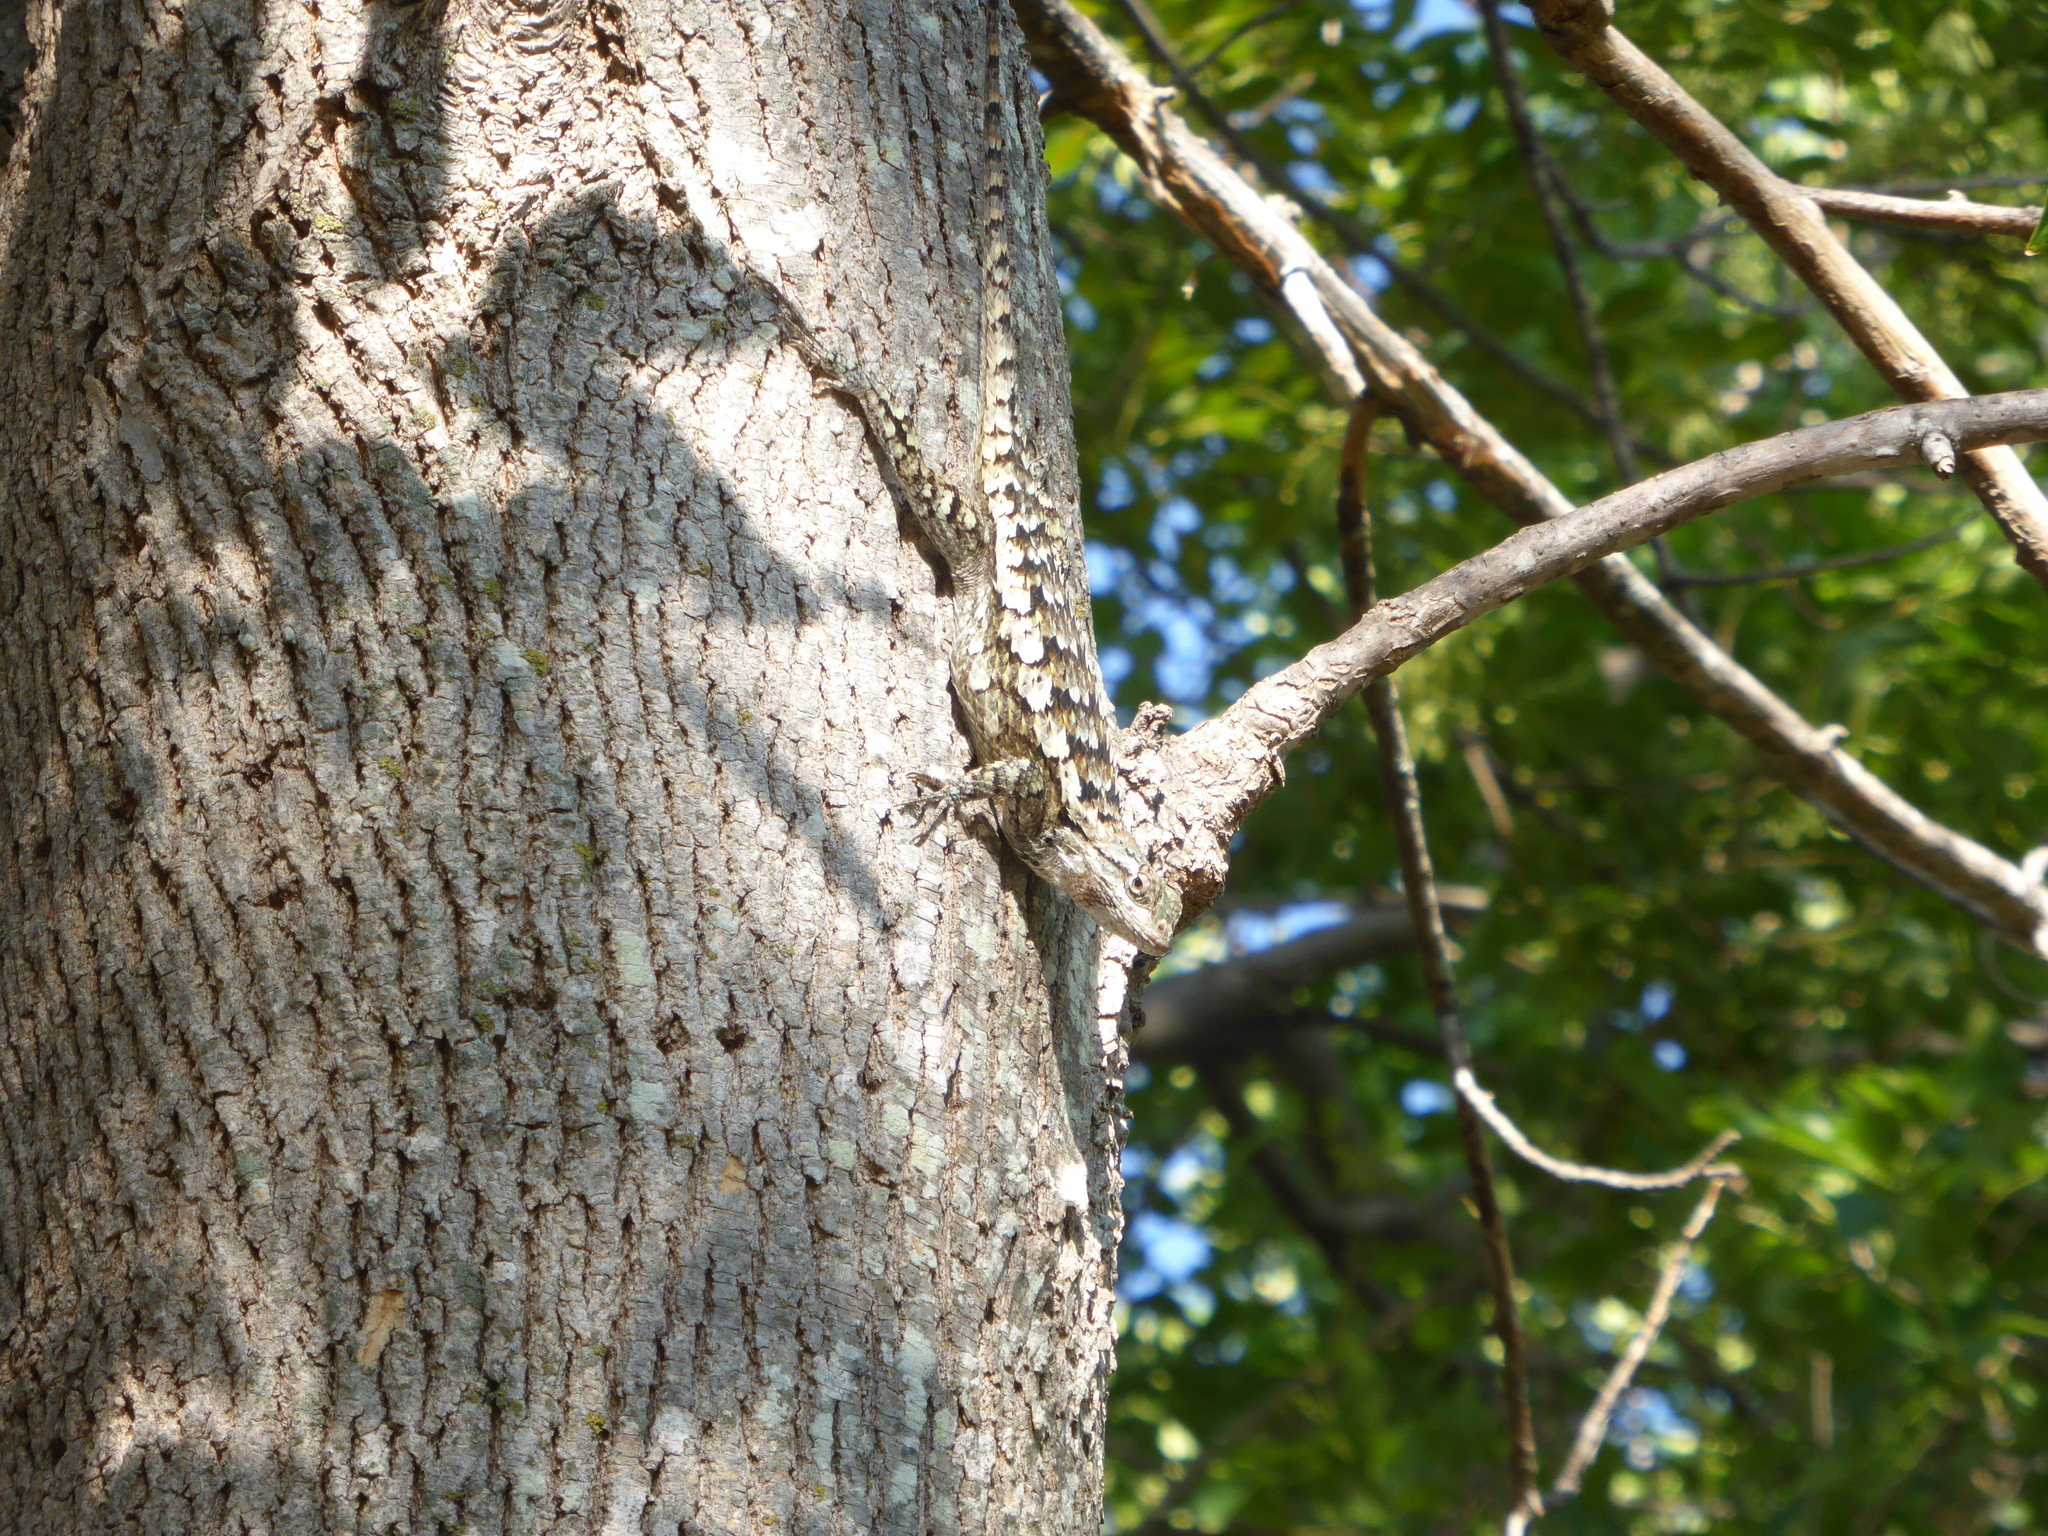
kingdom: Animalia
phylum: Chordata
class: Squamata
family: Phrynosomatidae
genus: Sceloporus
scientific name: Sceloporus olivaceus
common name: Texas spiny lizard
